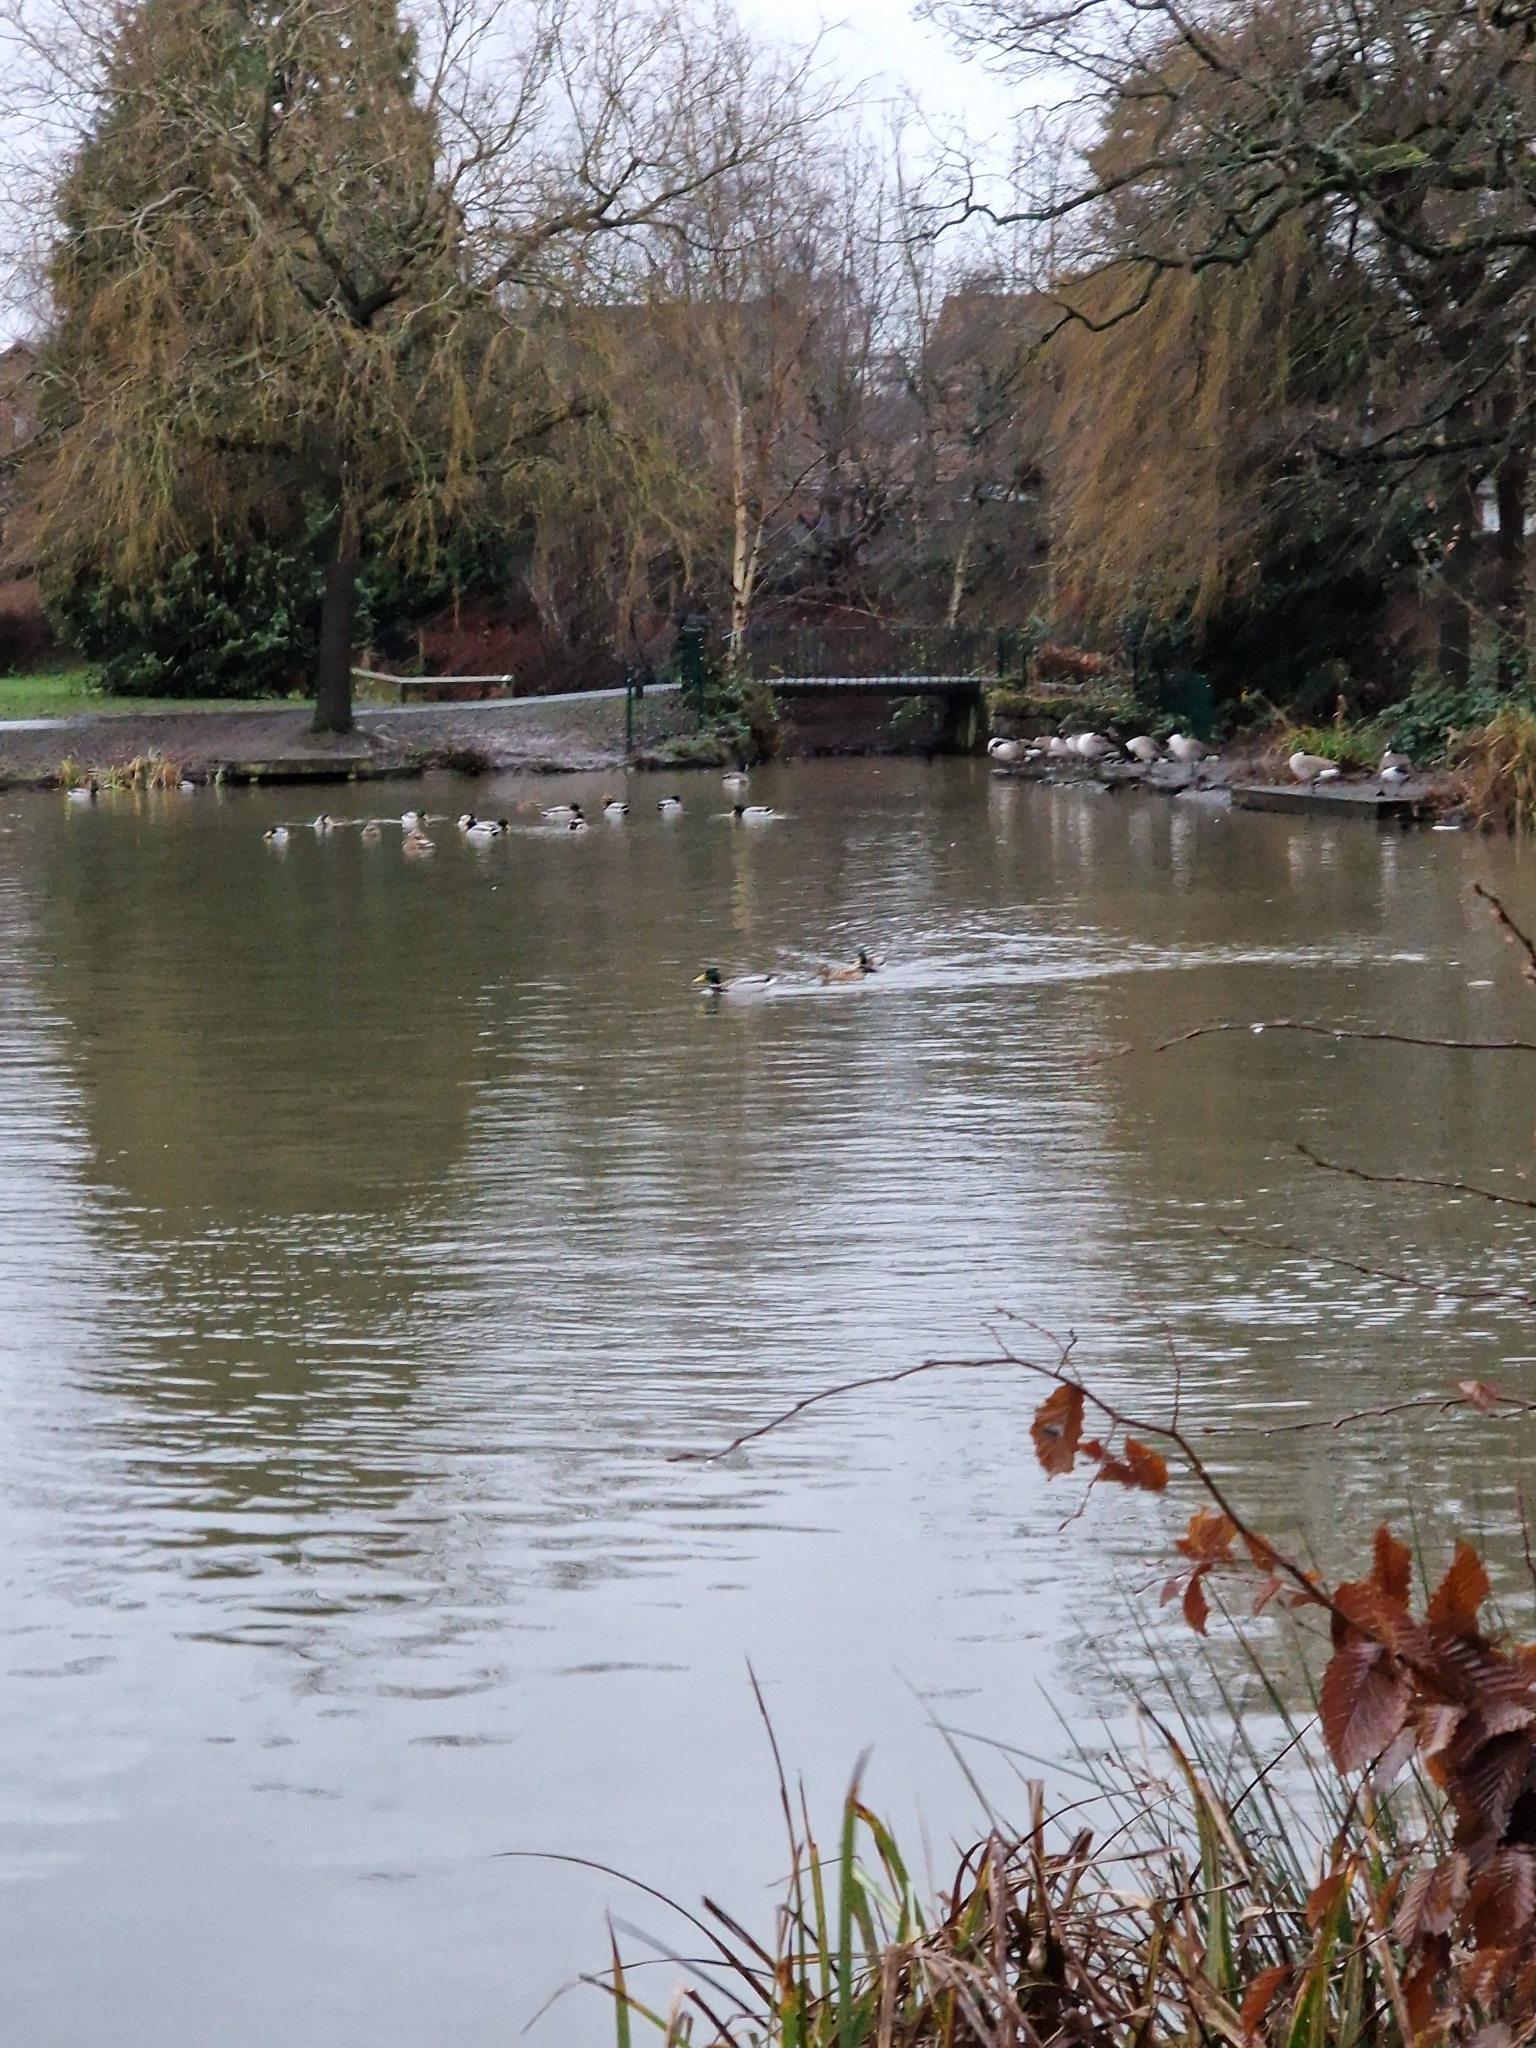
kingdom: Animalia
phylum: Chordata
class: Aves
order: Anseriformes
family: Anatidae
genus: Anas
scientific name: Anas platyrhynchos
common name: Mallard
